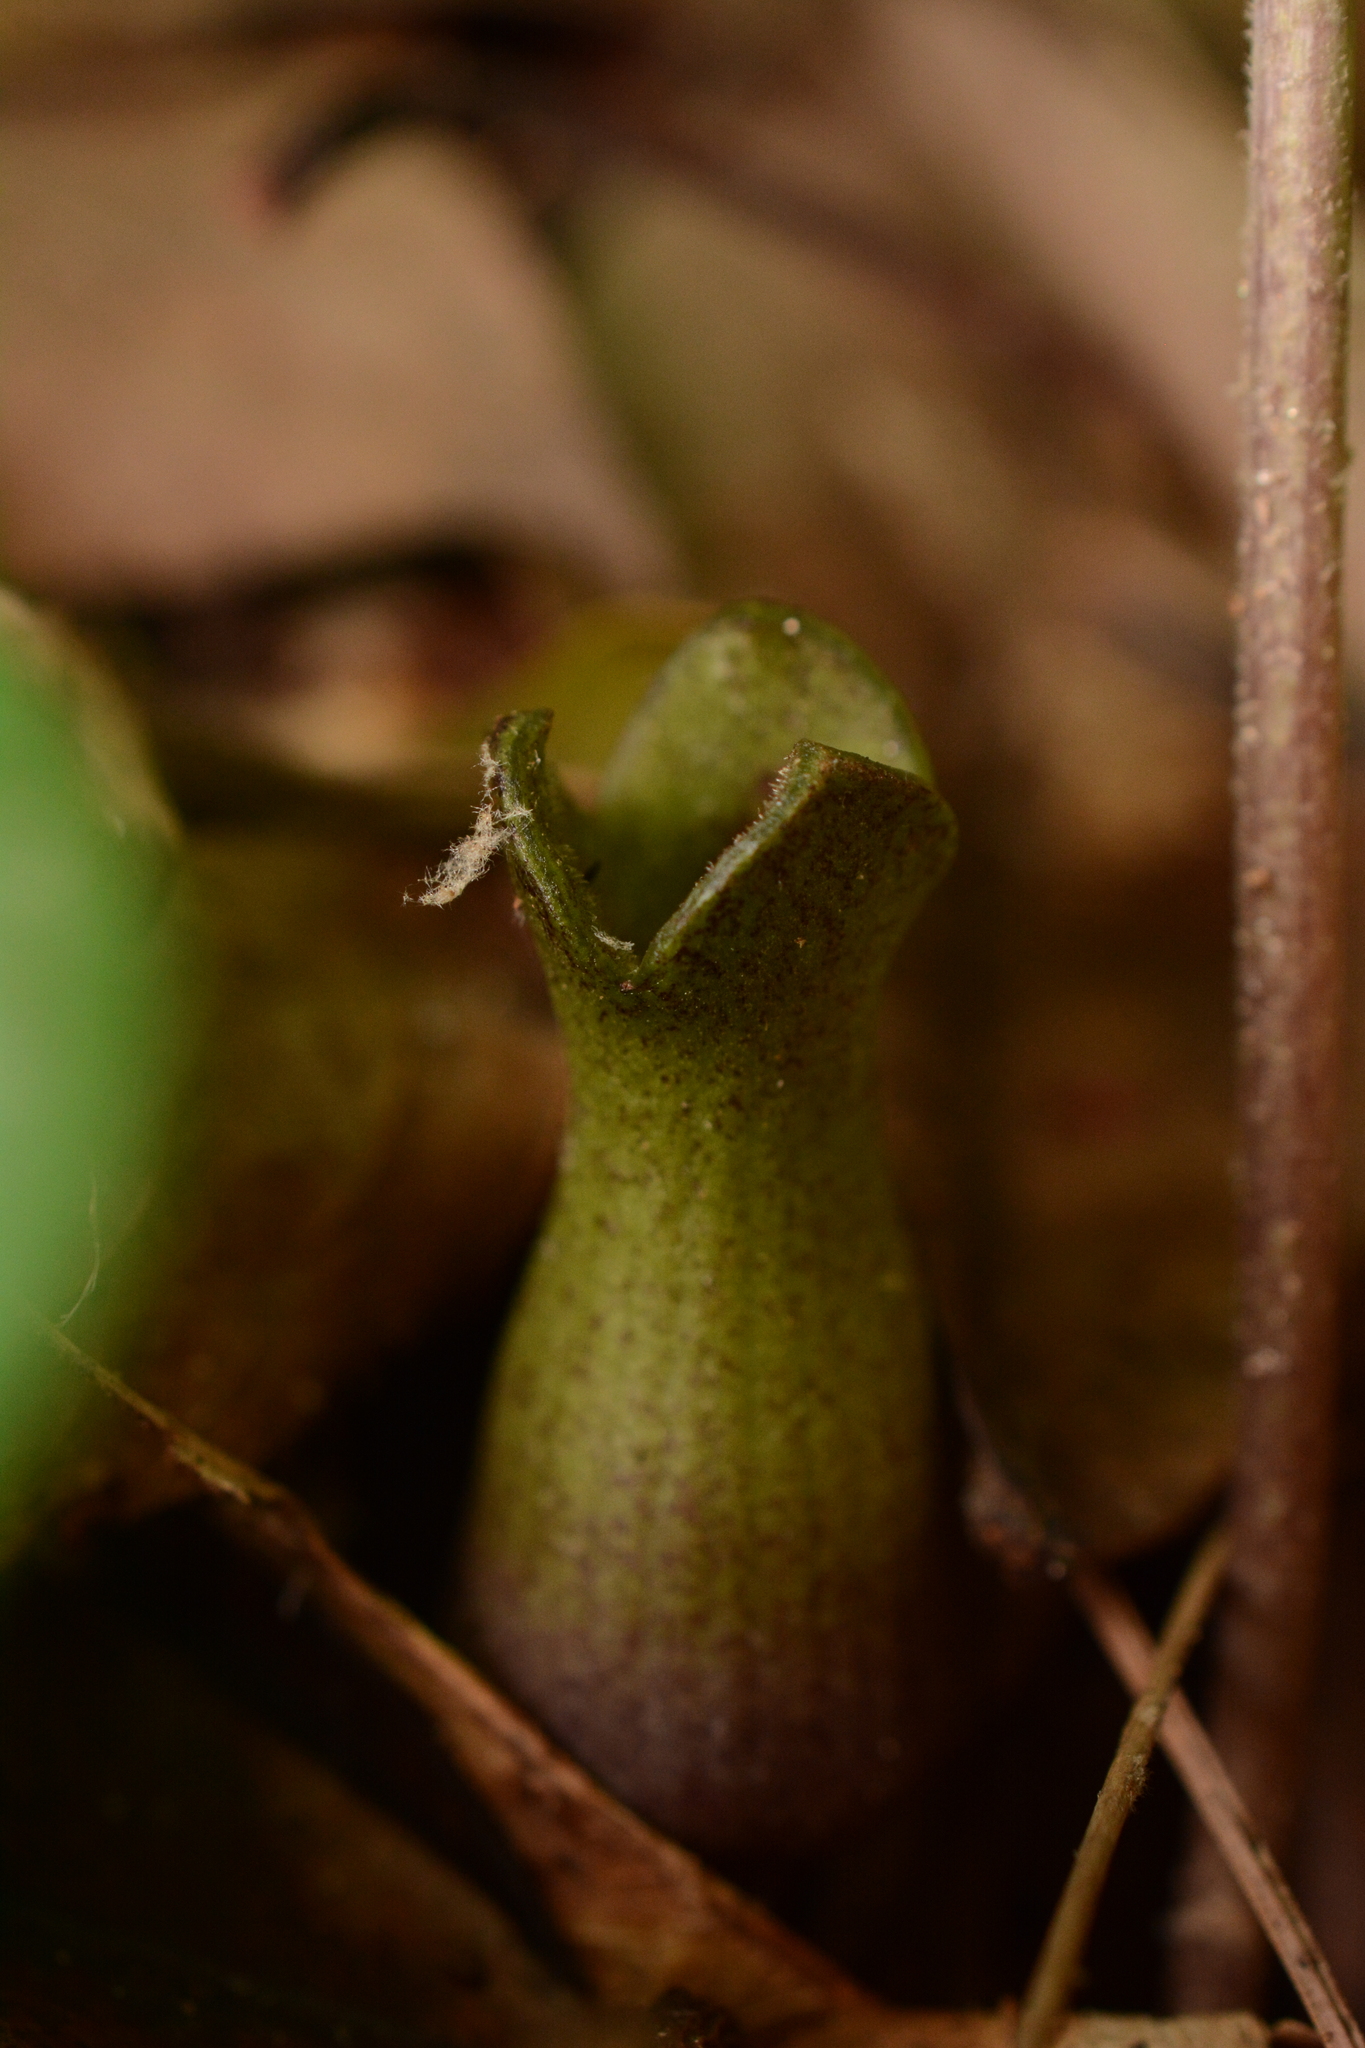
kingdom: Plantae
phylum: Tracheophyta
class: Magnoliopsida
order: Piperales
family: Aristolochiaceae
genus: Hexastylis
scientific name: Hexastylis arifolia
